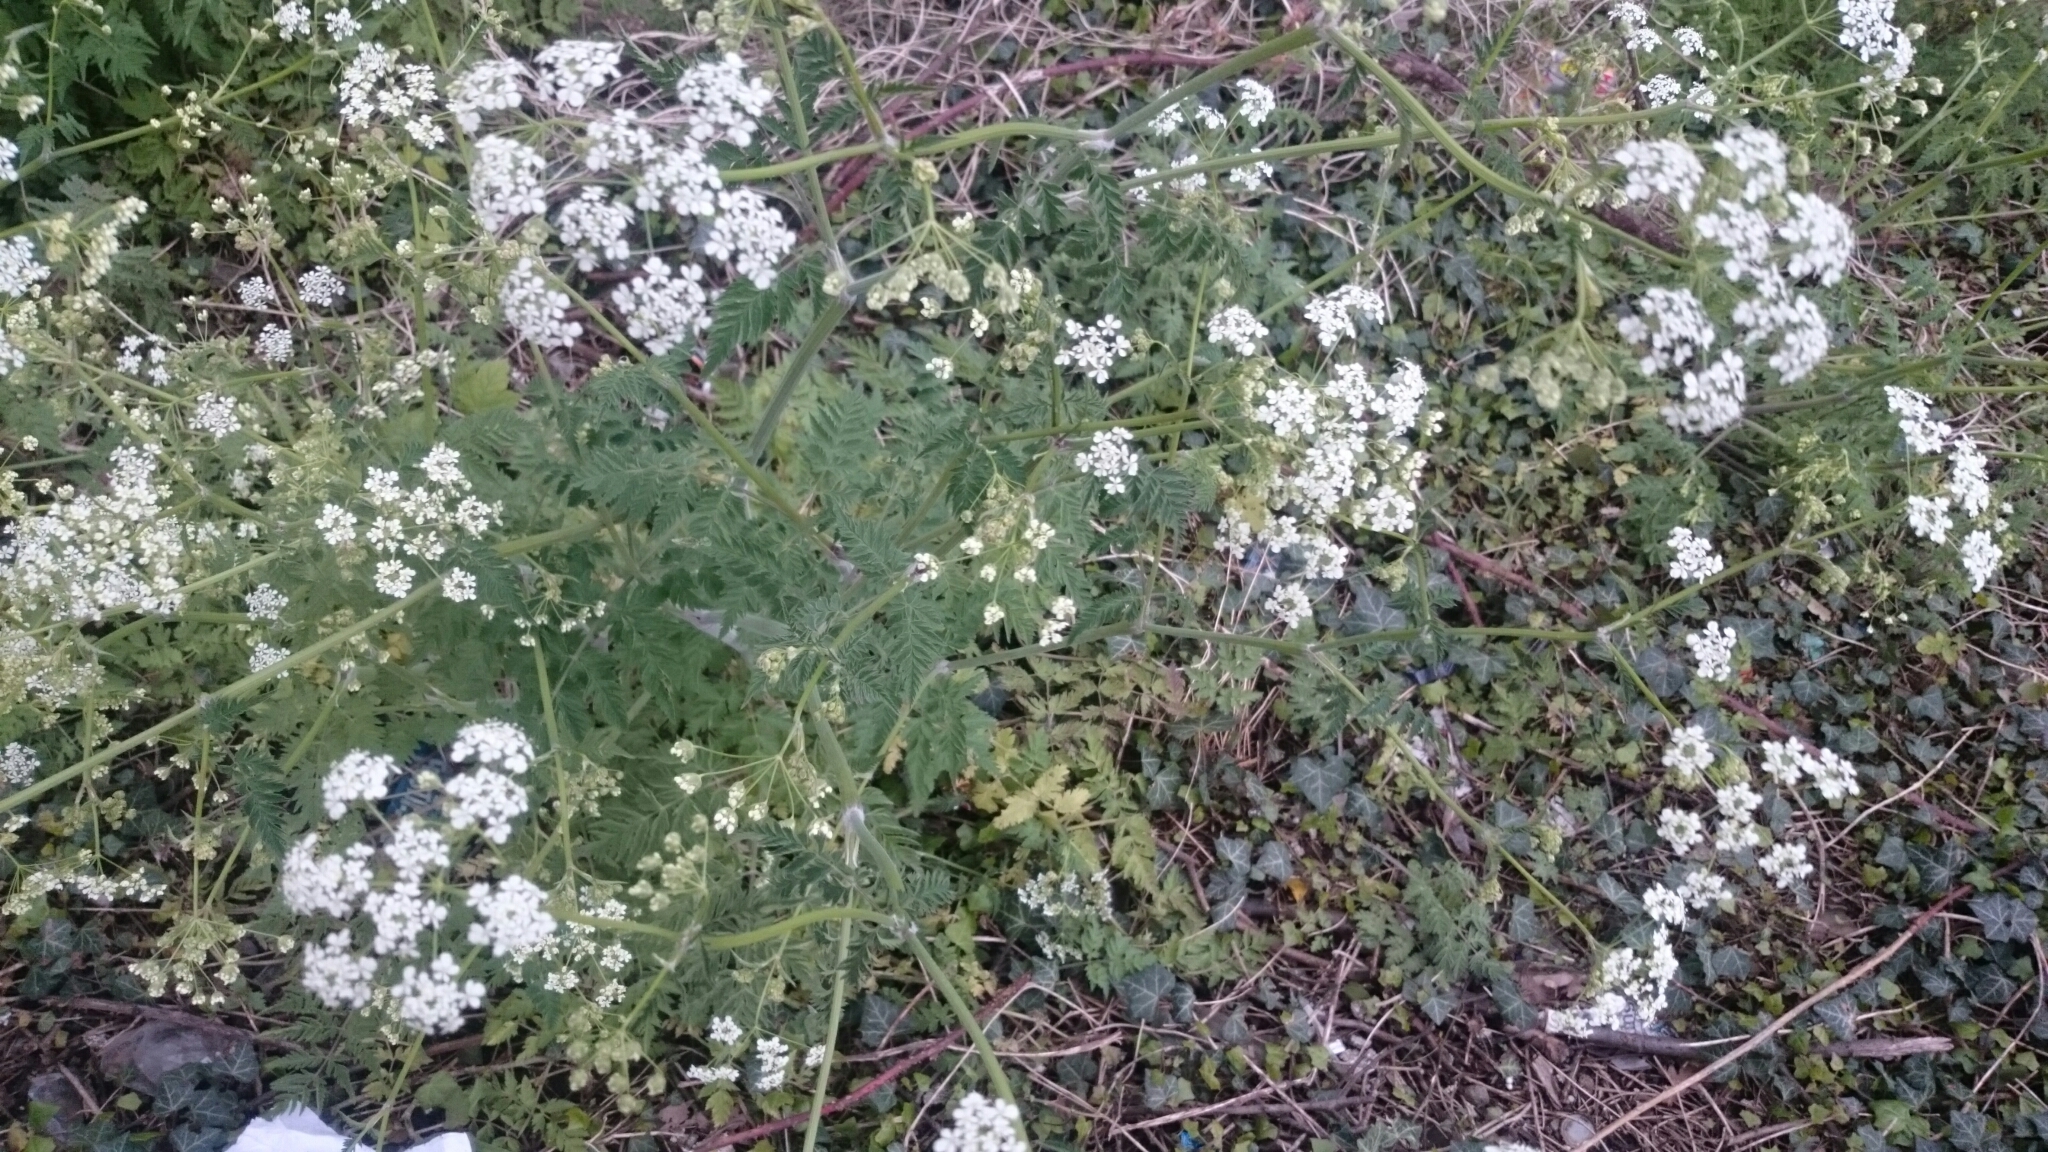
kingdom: Plantae
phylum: Tracheophyta
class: Magnoliopsida
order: Apiales
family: Apiaceae
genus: Anthriscus
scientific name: Anthriscus sylvestris
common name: Cow parsley
